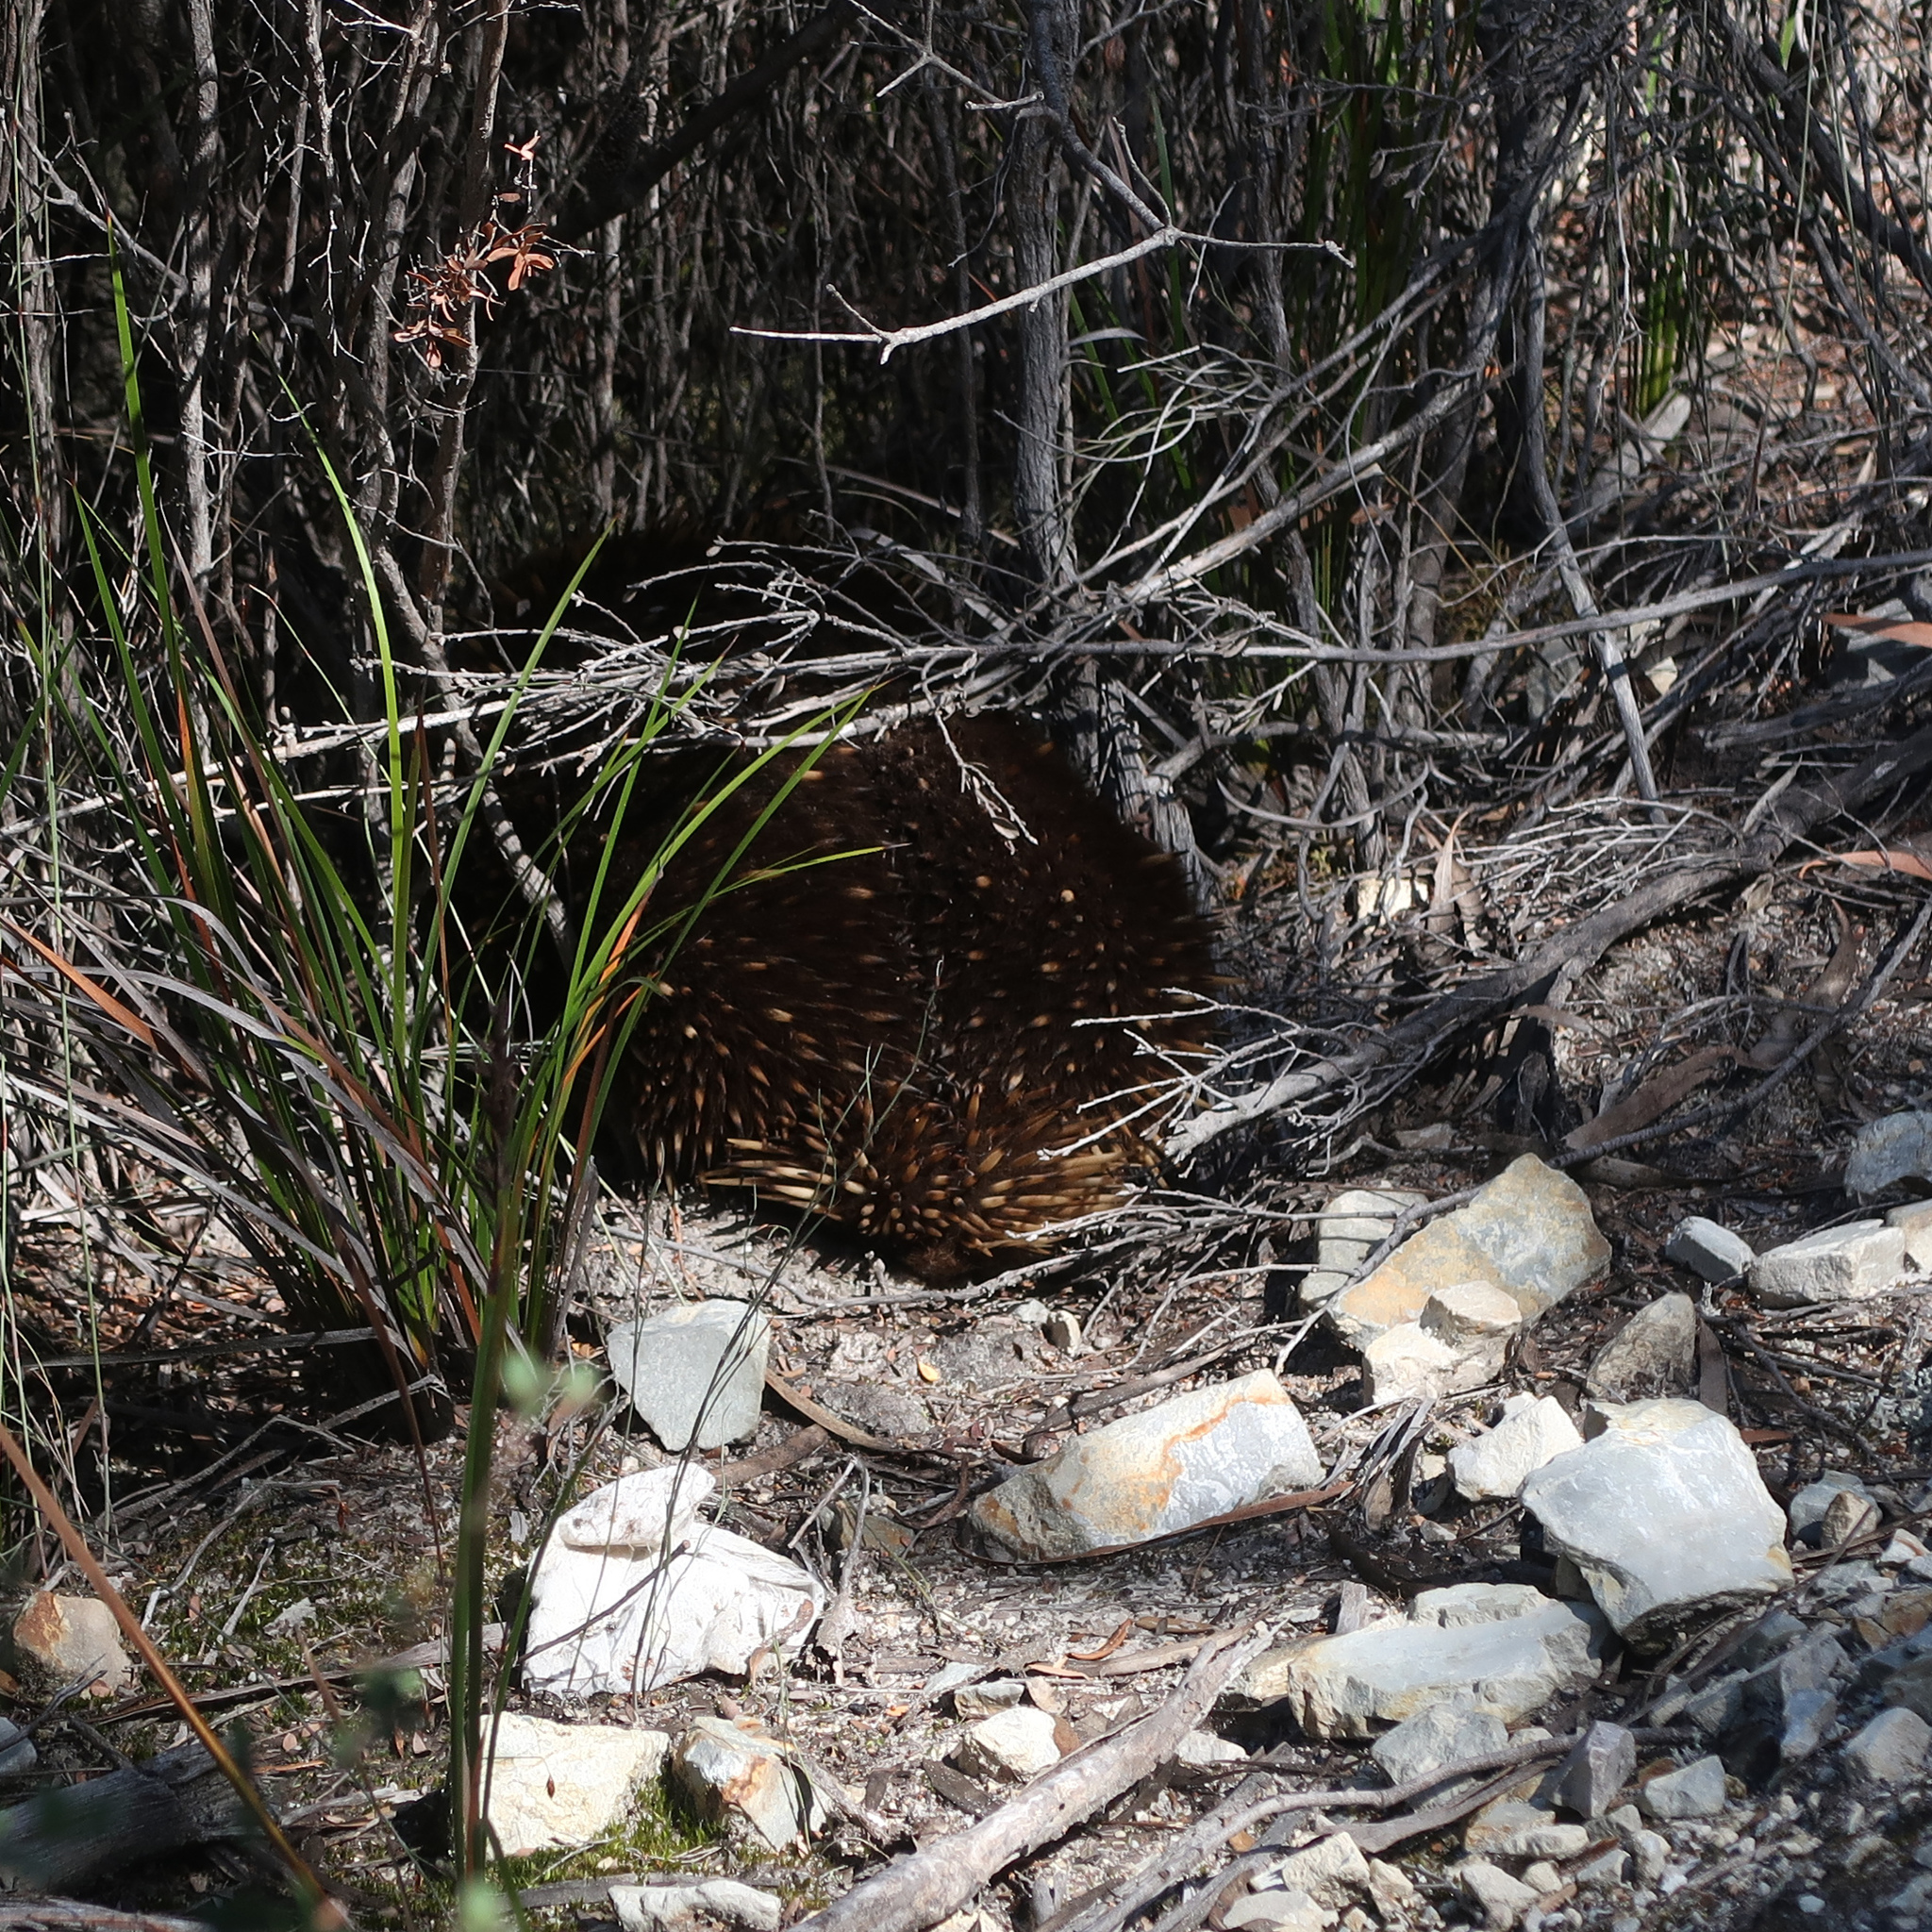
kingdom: Animalia
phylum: Chordata
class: Mammalia
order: Monotremata
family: Tachyglossidae
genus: Tachyglossus
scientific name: Tachyglossus aculeatus
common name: Short-beaked echidna
